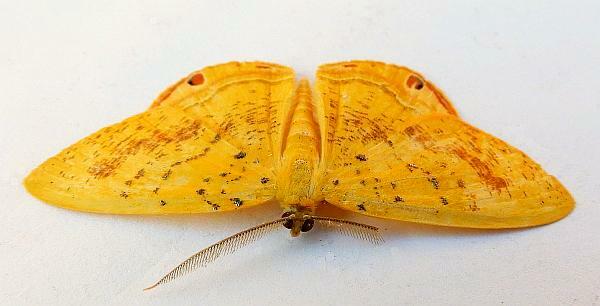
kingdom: Animalia
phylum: Arthropoda
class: Insecta
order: Lepidoptera
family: Geometridae
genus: Phrygionis
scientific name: Phrygionis auriferaria
